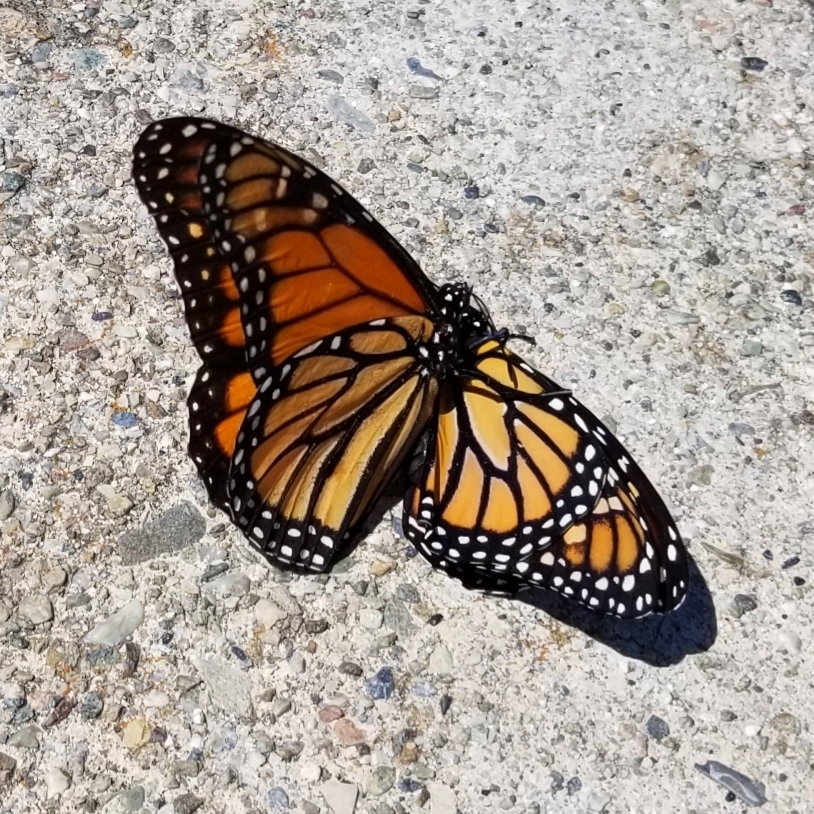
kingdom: Animalia
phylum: Arthropoda
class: Insecta
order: Lepidoptera
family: Nymphalidae
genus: Danaus
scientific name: Danaus plexippus
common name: Monarch
